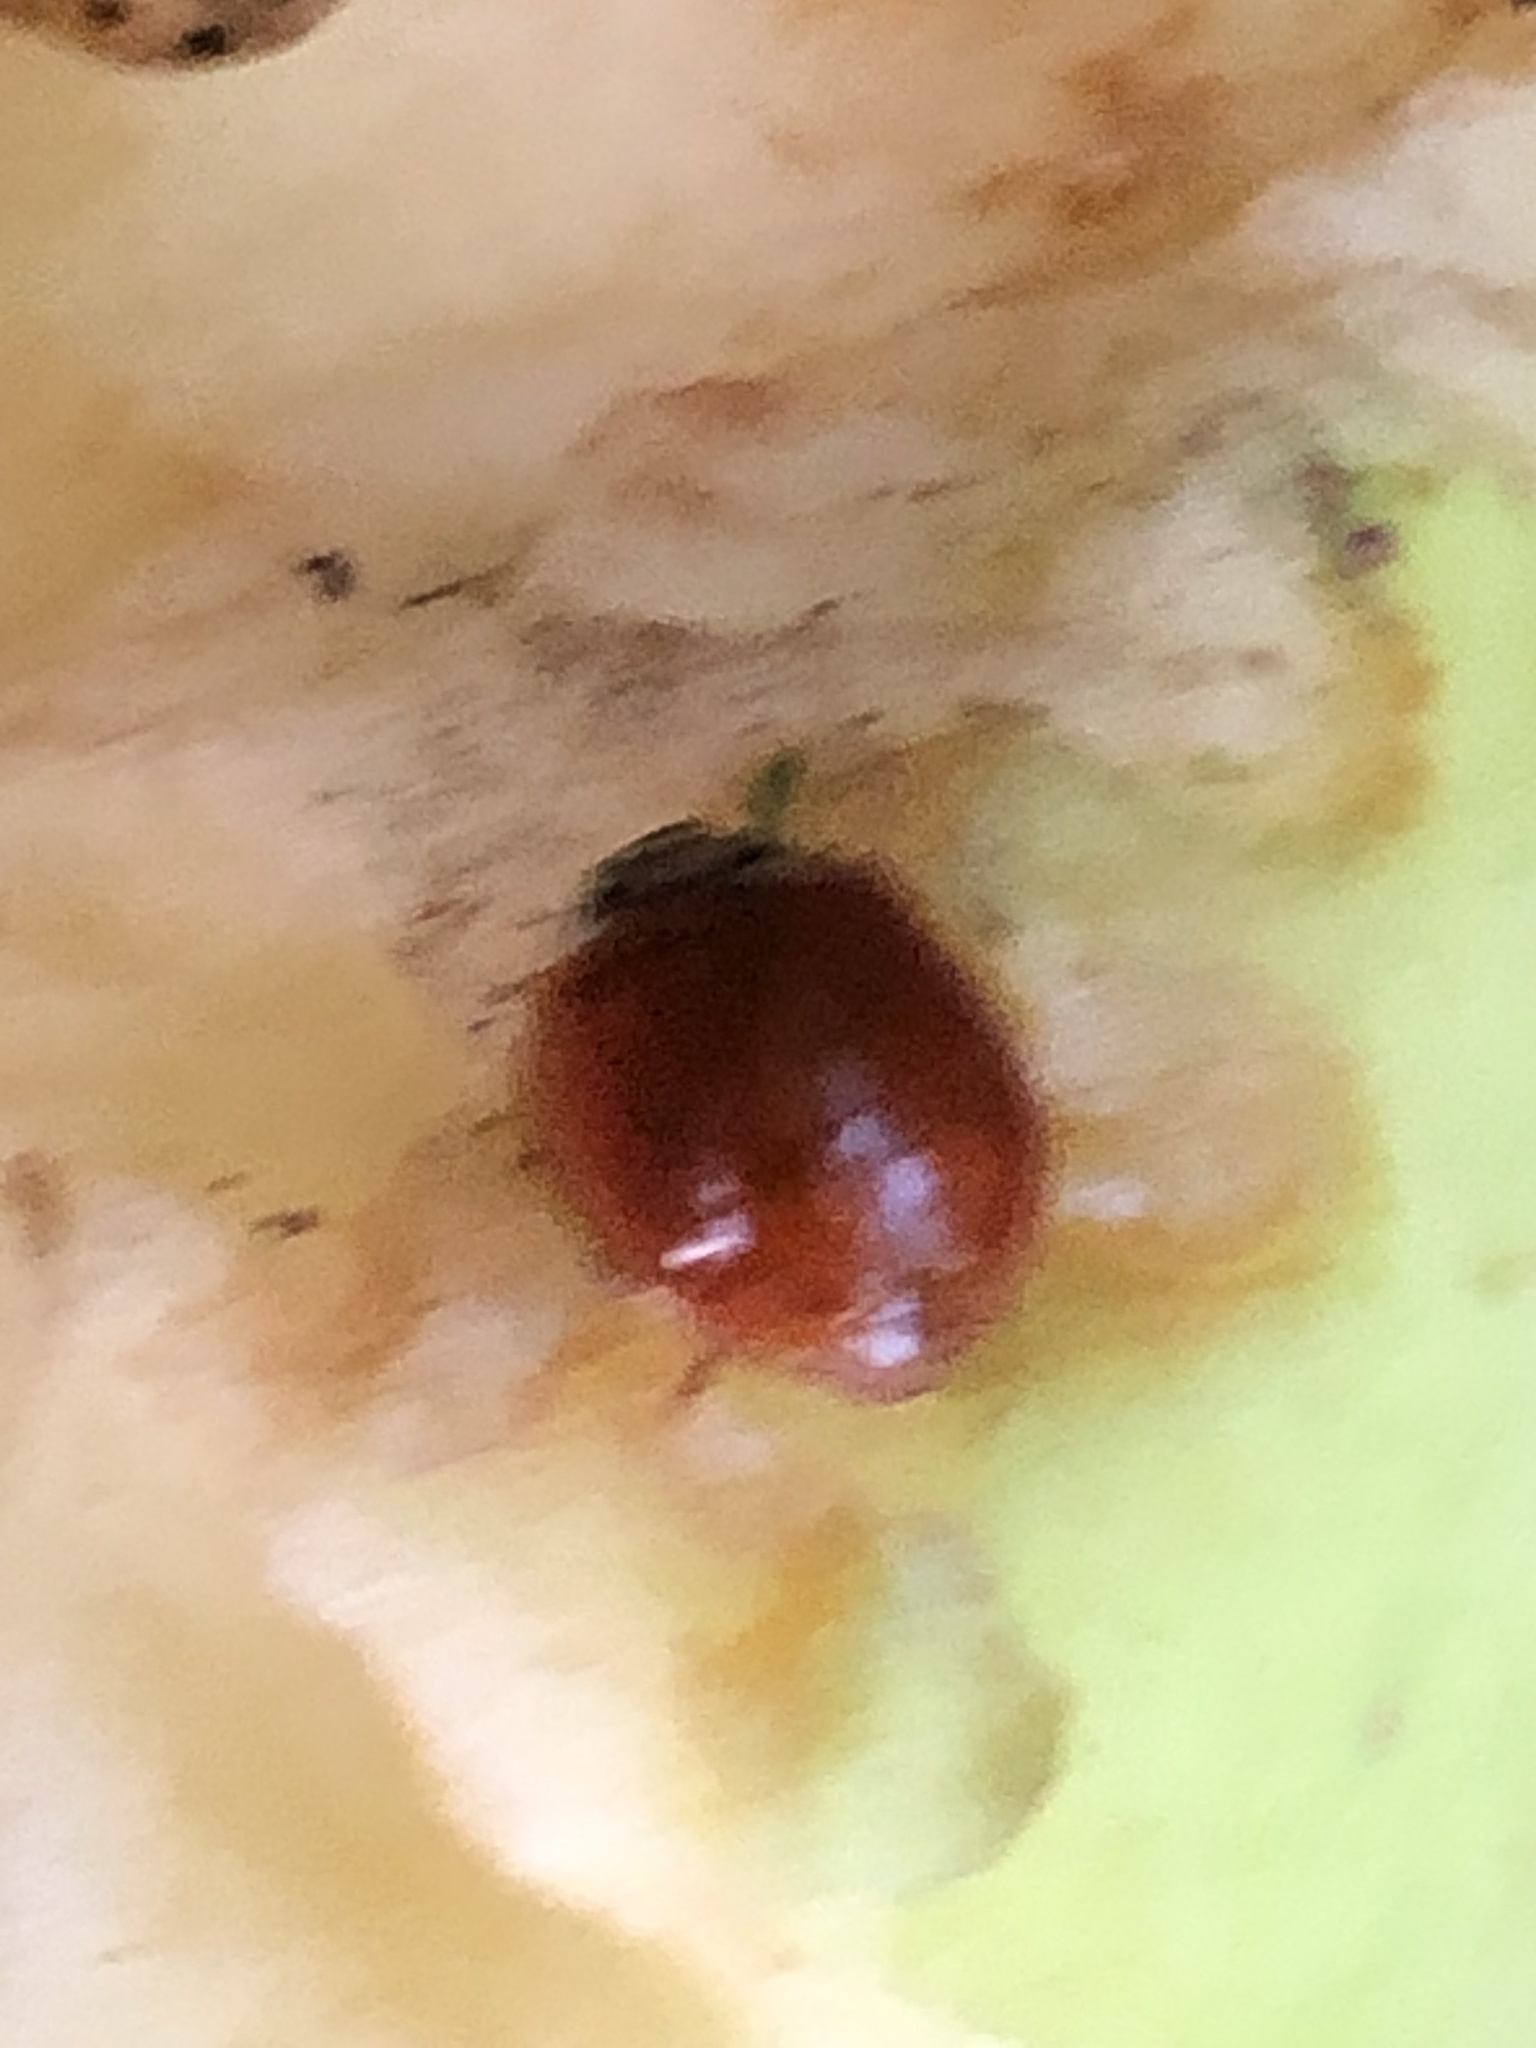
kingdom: Animalia
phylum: Arthropoda
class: Insecta
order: Coleoptera
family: Coccinellidae
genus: Harmonia
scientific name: Harmonia axyridis
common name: Harlequin ladybird
